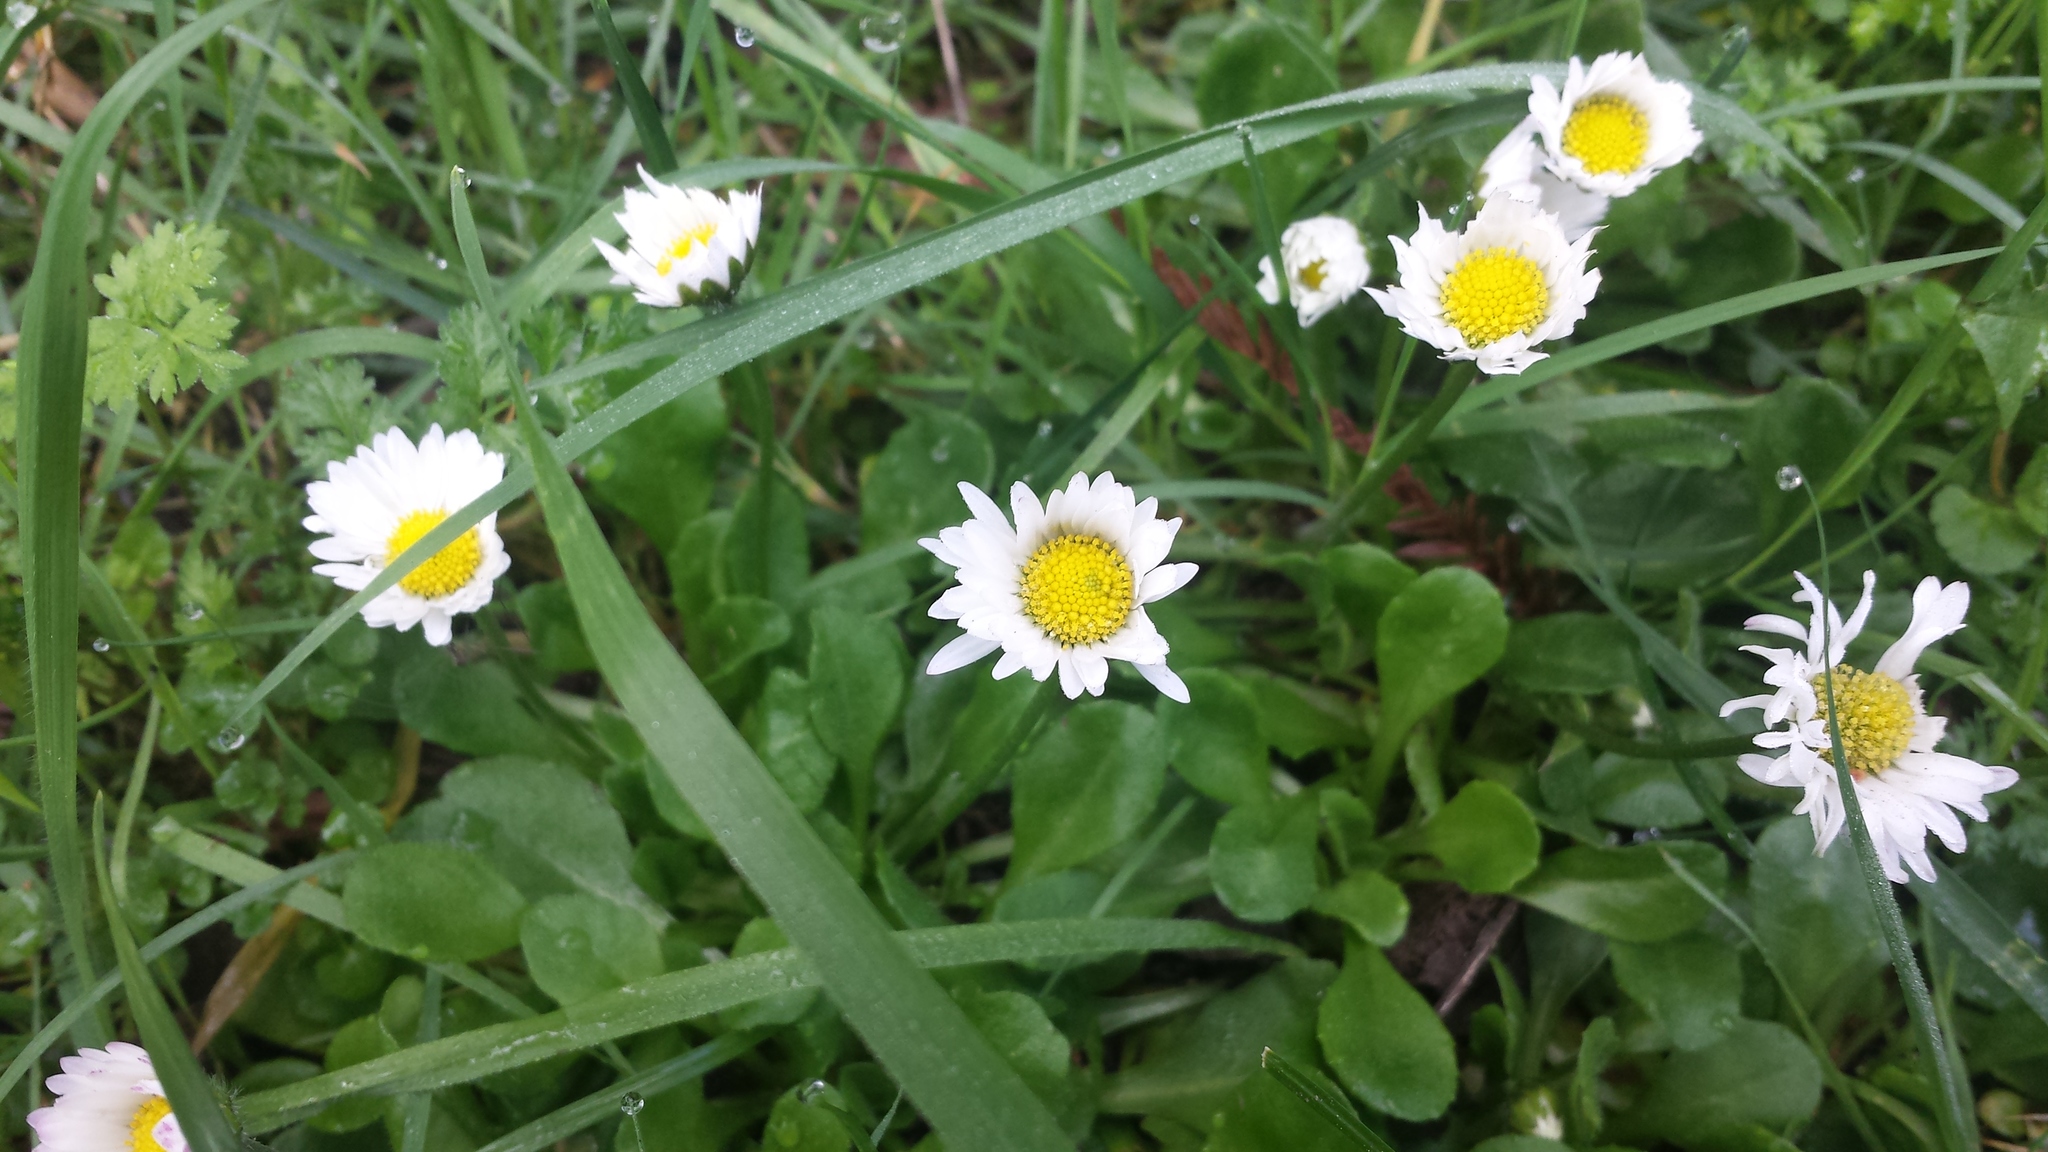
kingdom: Plantae
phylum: Tracheophyta
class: Magnoliopsida
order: Asterales
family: Asteraceae
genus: Bellis
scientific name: Bellis perennis
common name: Lawndaisy
